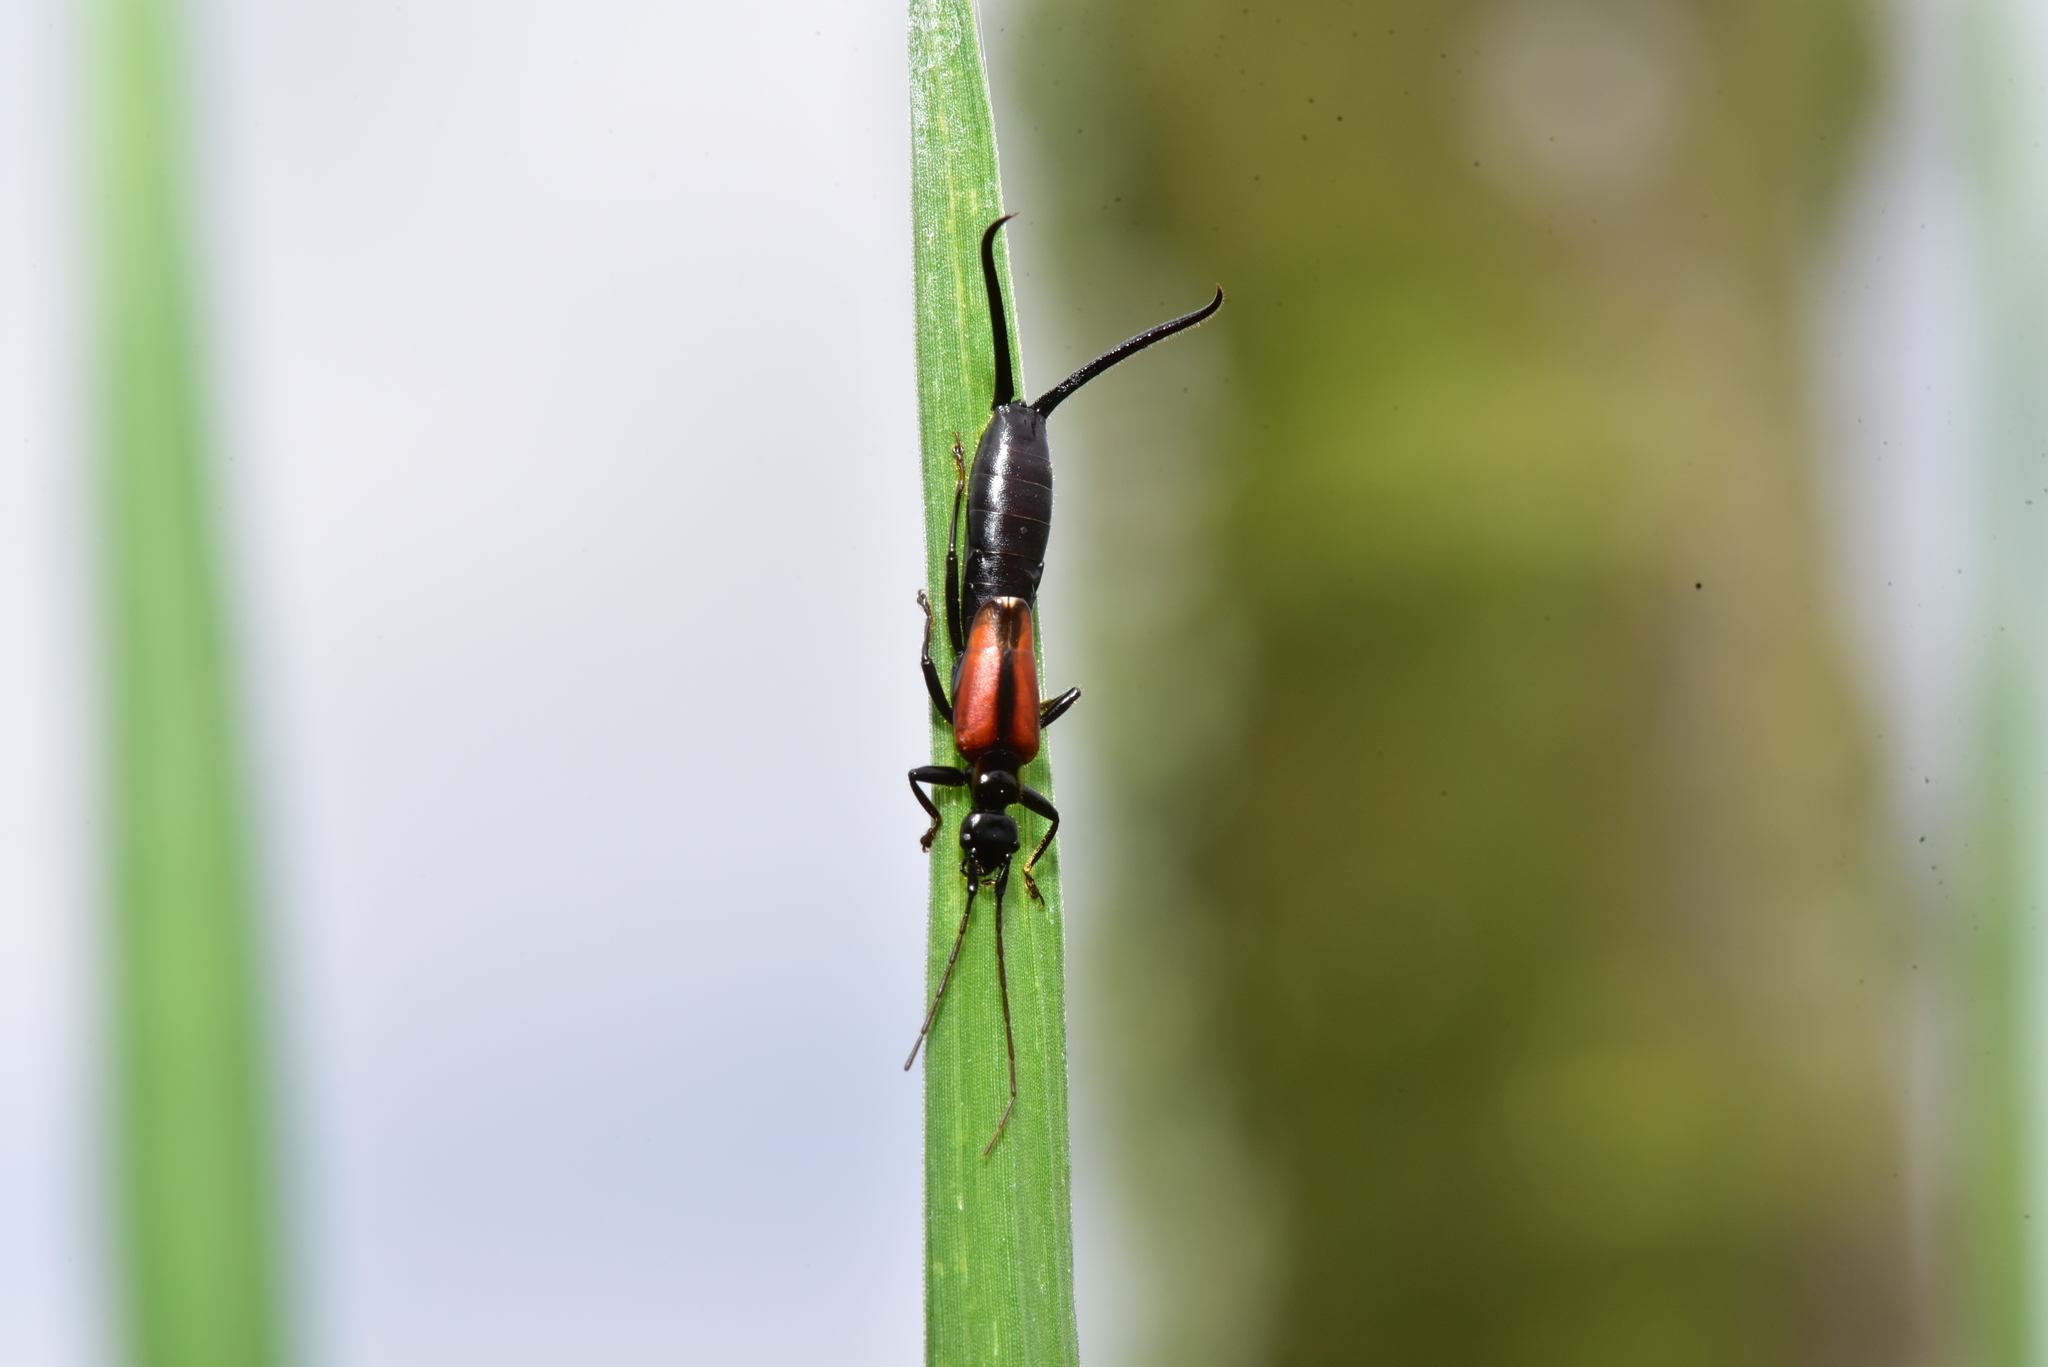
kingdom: Animalia
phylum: Arthropoda
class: Insecta
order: Dermaptera
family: Forficulidae
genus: Timomenus
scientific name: Timomenus komarovi
